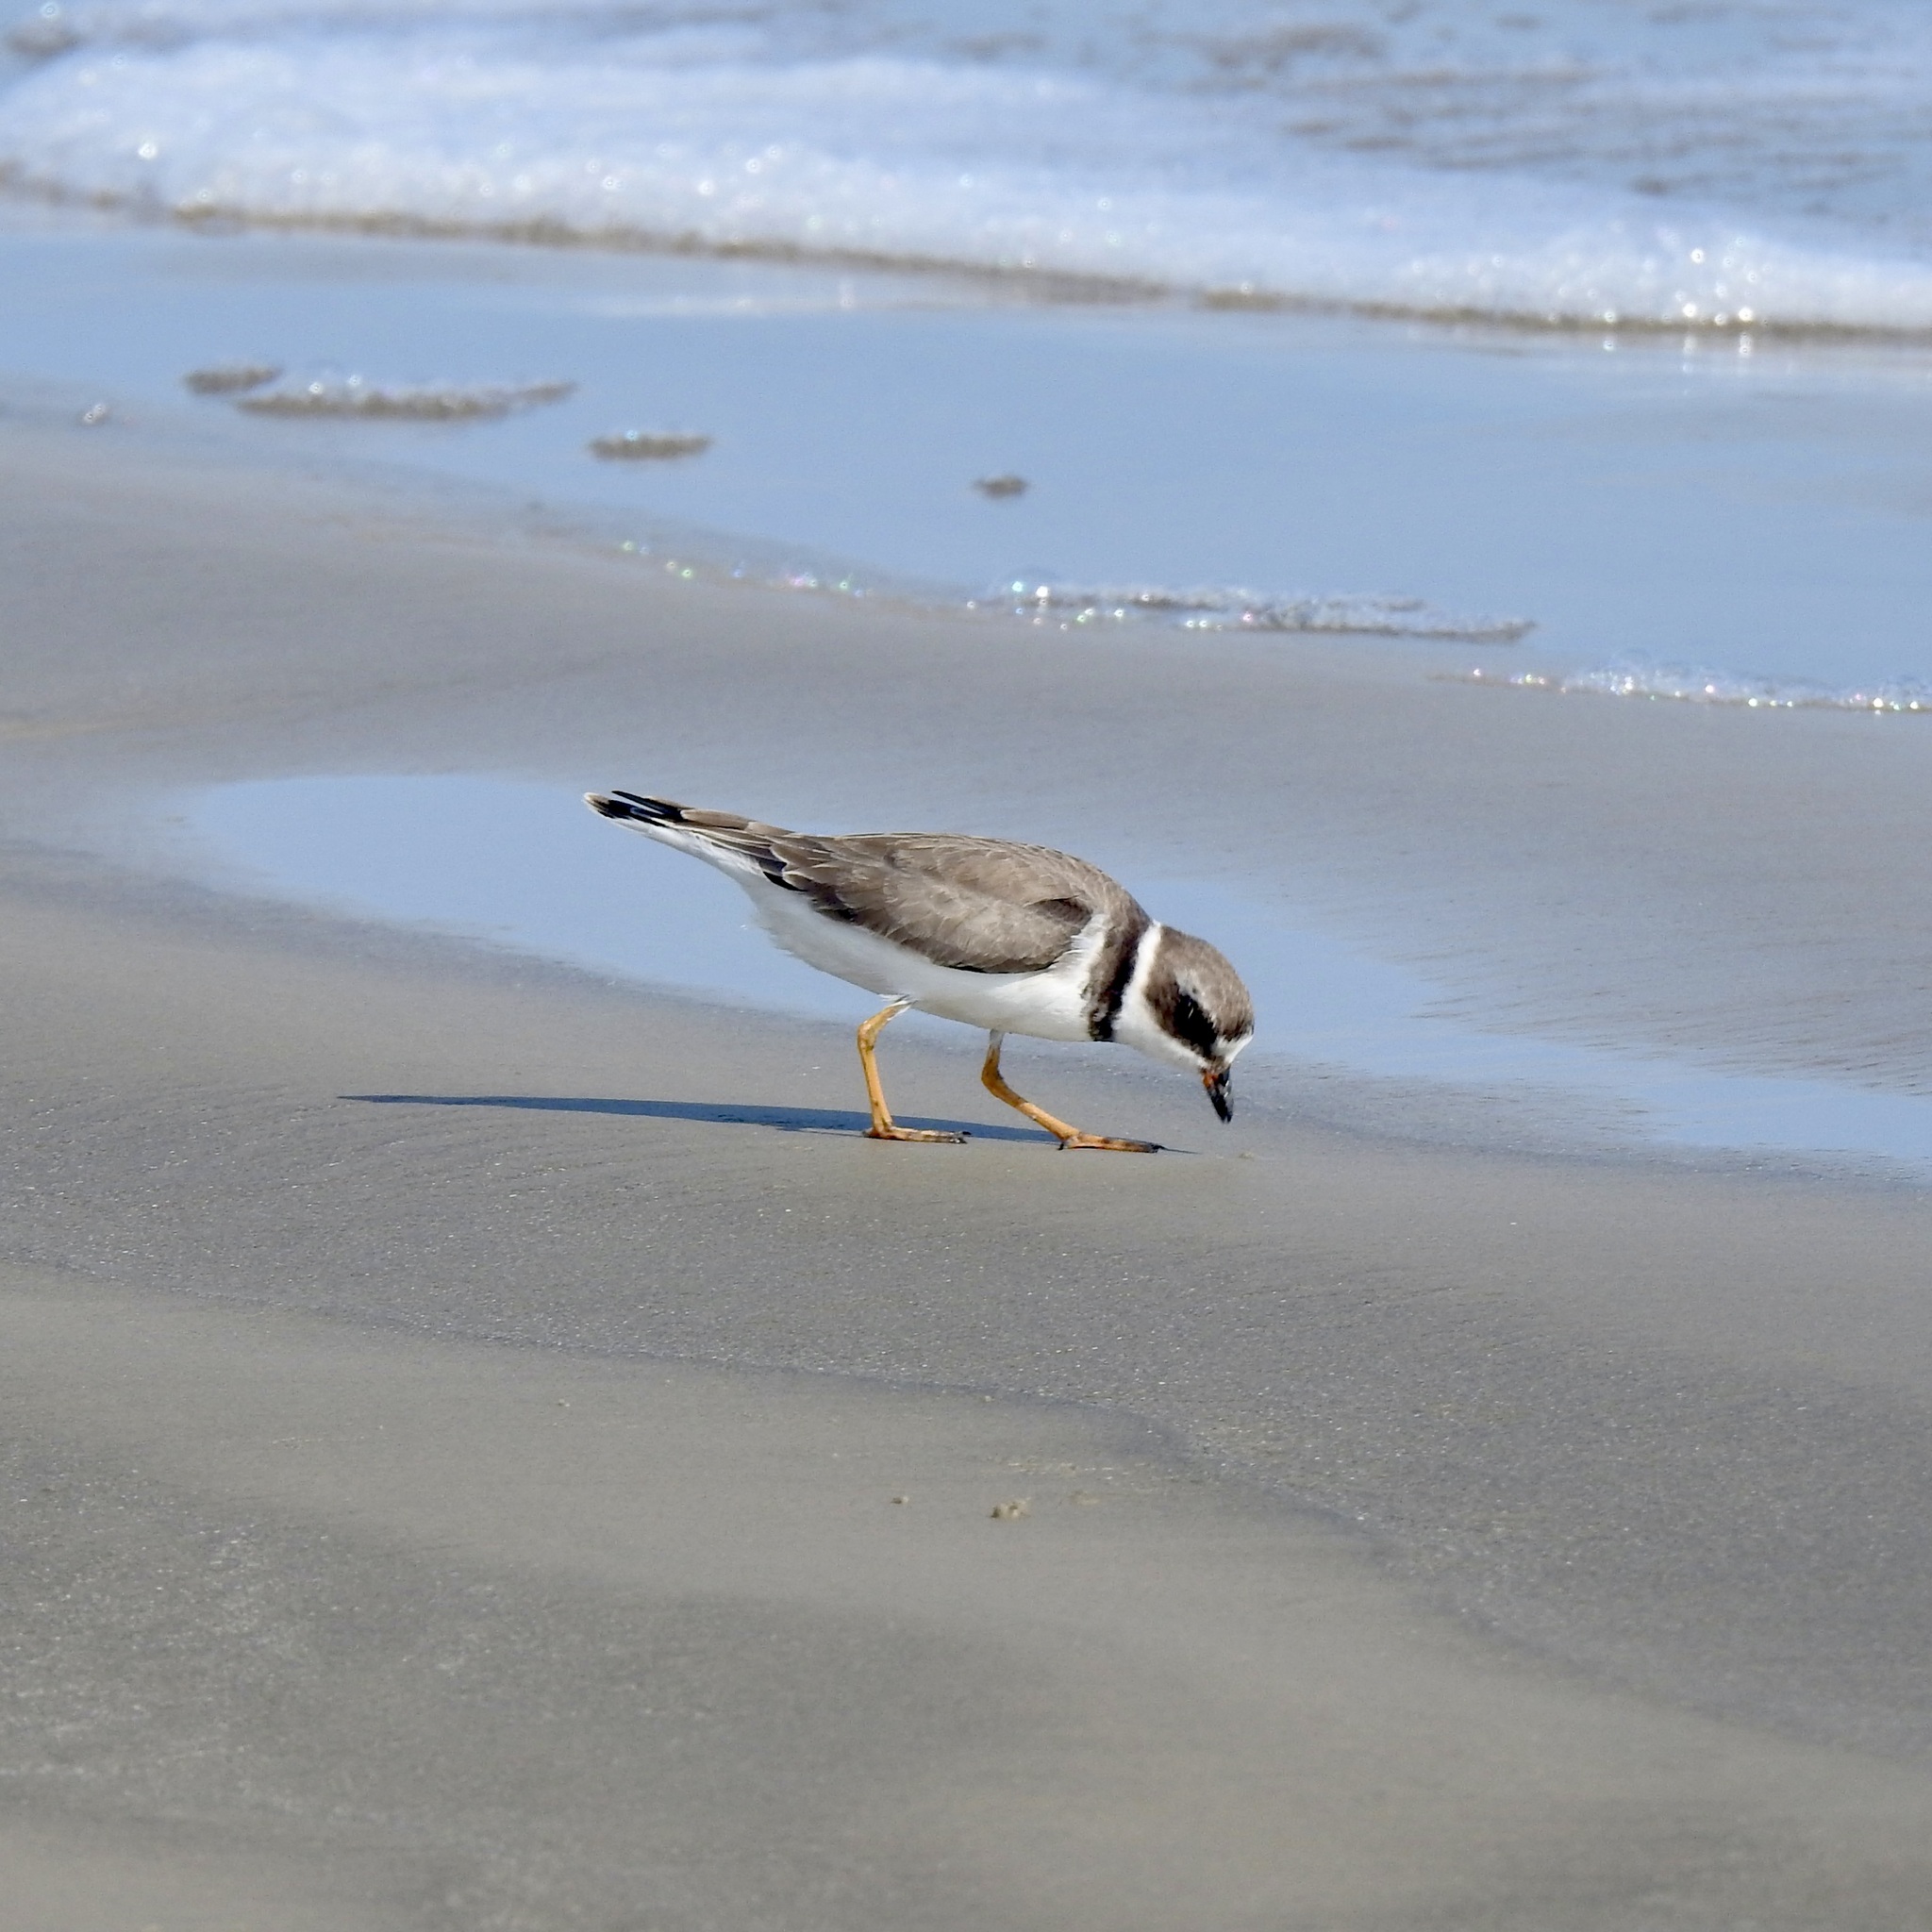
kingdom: Animalia
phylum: Chordata
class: Aves
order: Charadriiformes
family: Charadriidae
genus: Charadrius
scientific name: Charadrius semipalmatus
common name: Semipalmated plover
